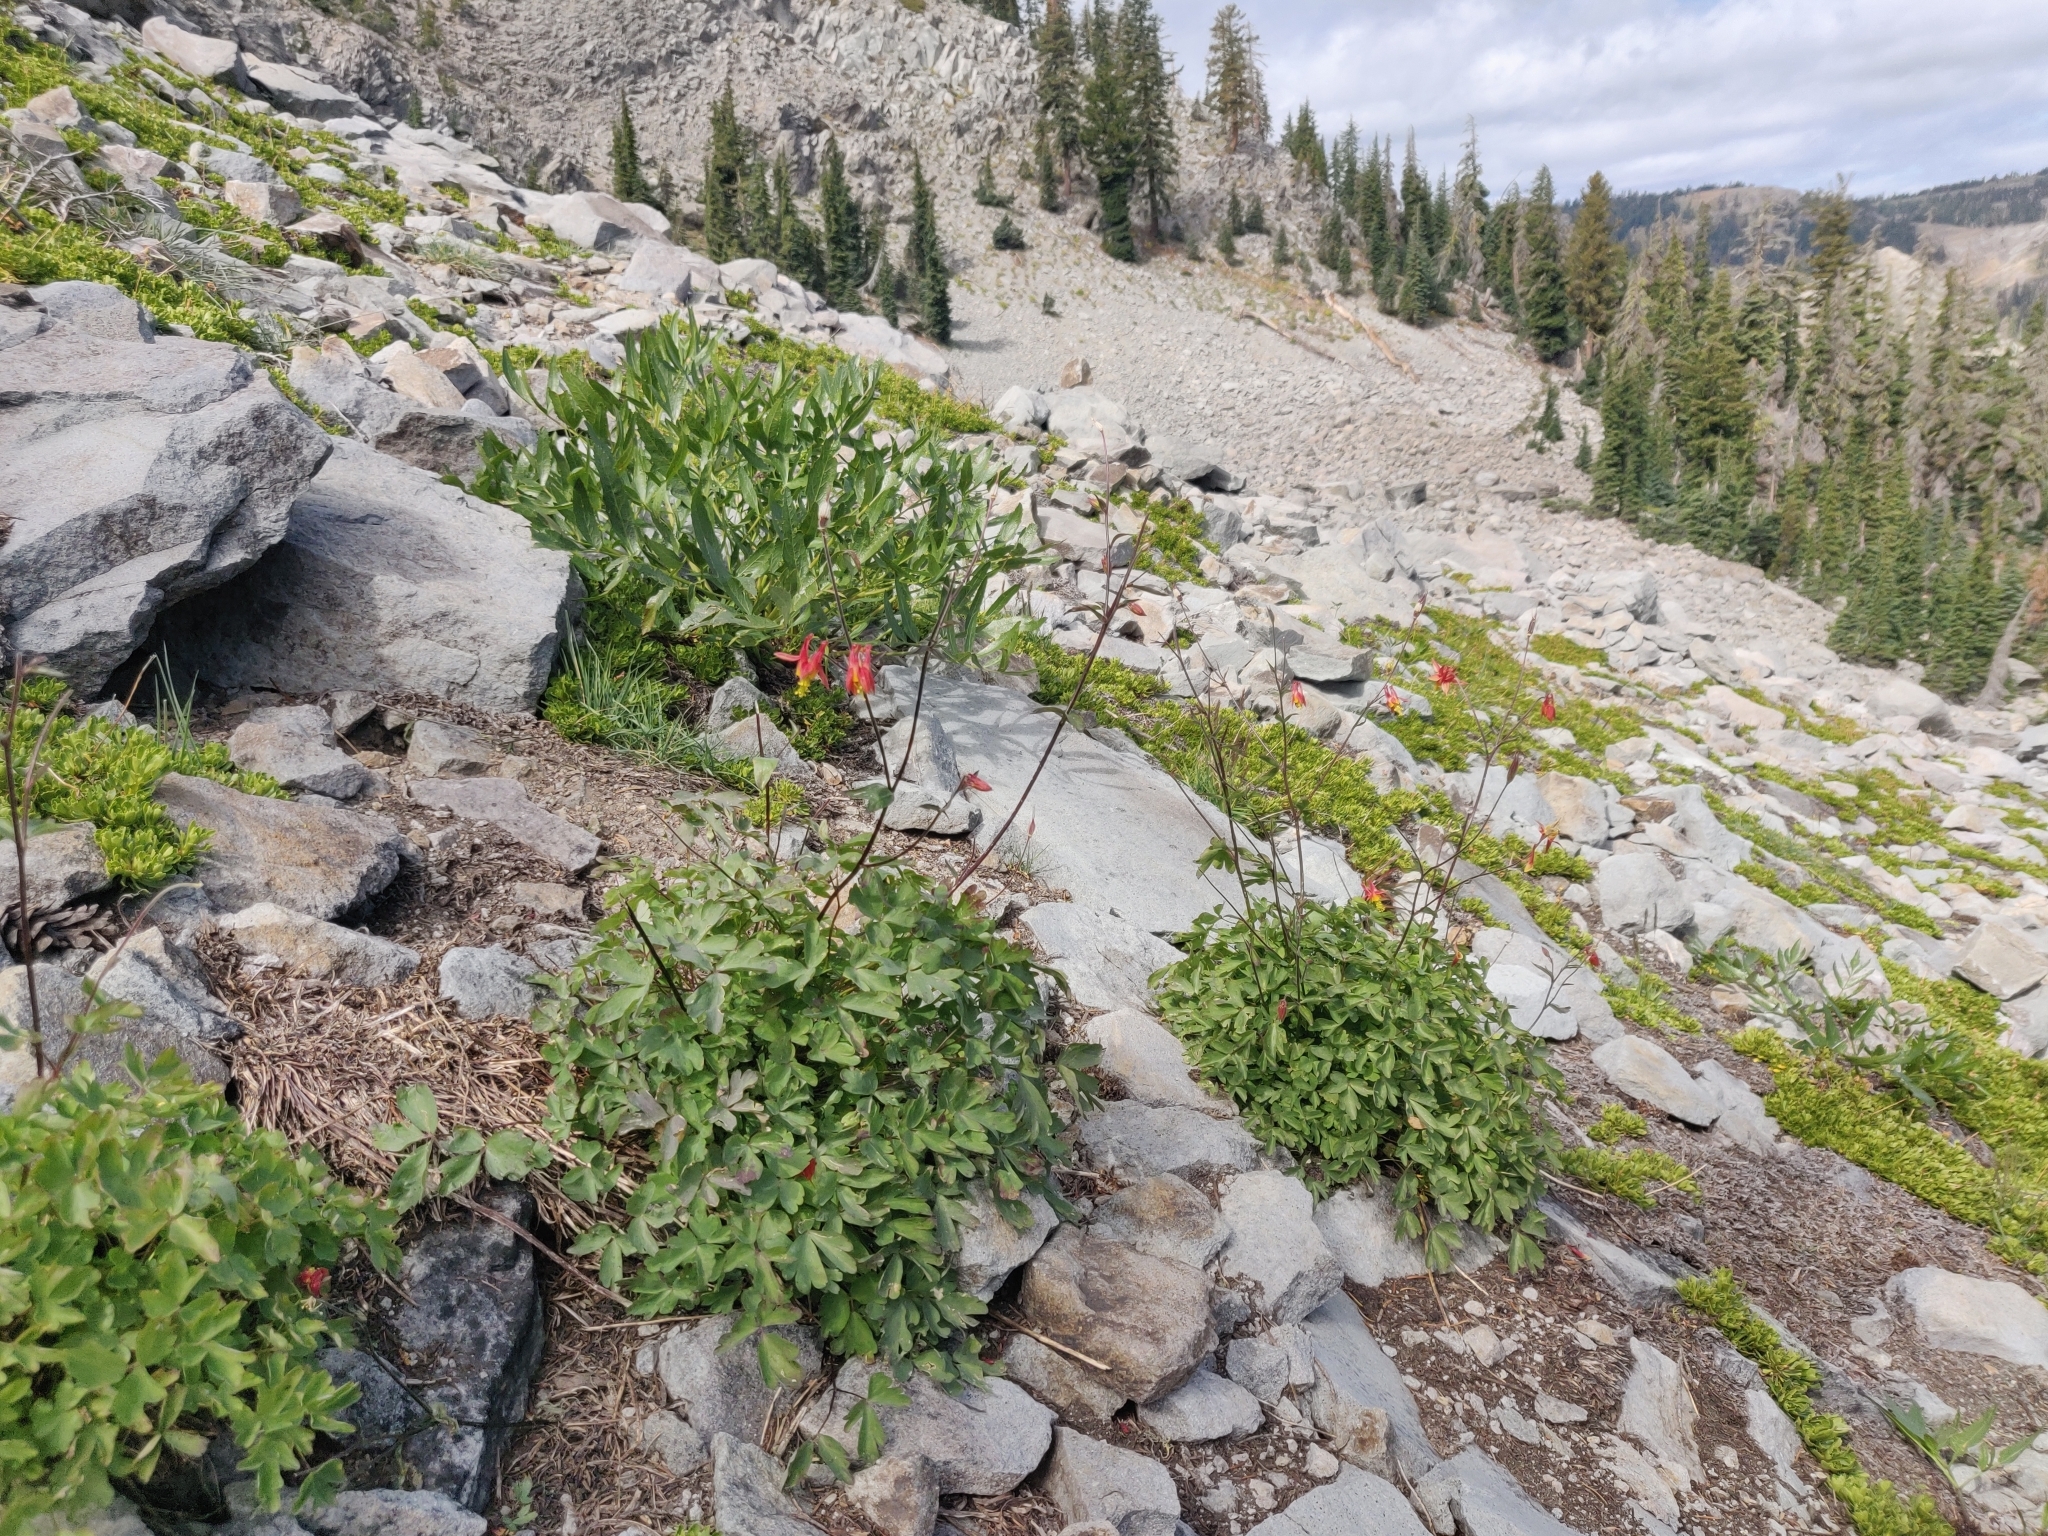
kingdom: Plantae
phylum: Tracheophyta
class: Magnoliopsida
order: Ranunculales
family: Ranunculaceae
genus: Aquilegia
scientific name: Aquilegia formosa
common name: Sitka columbine
